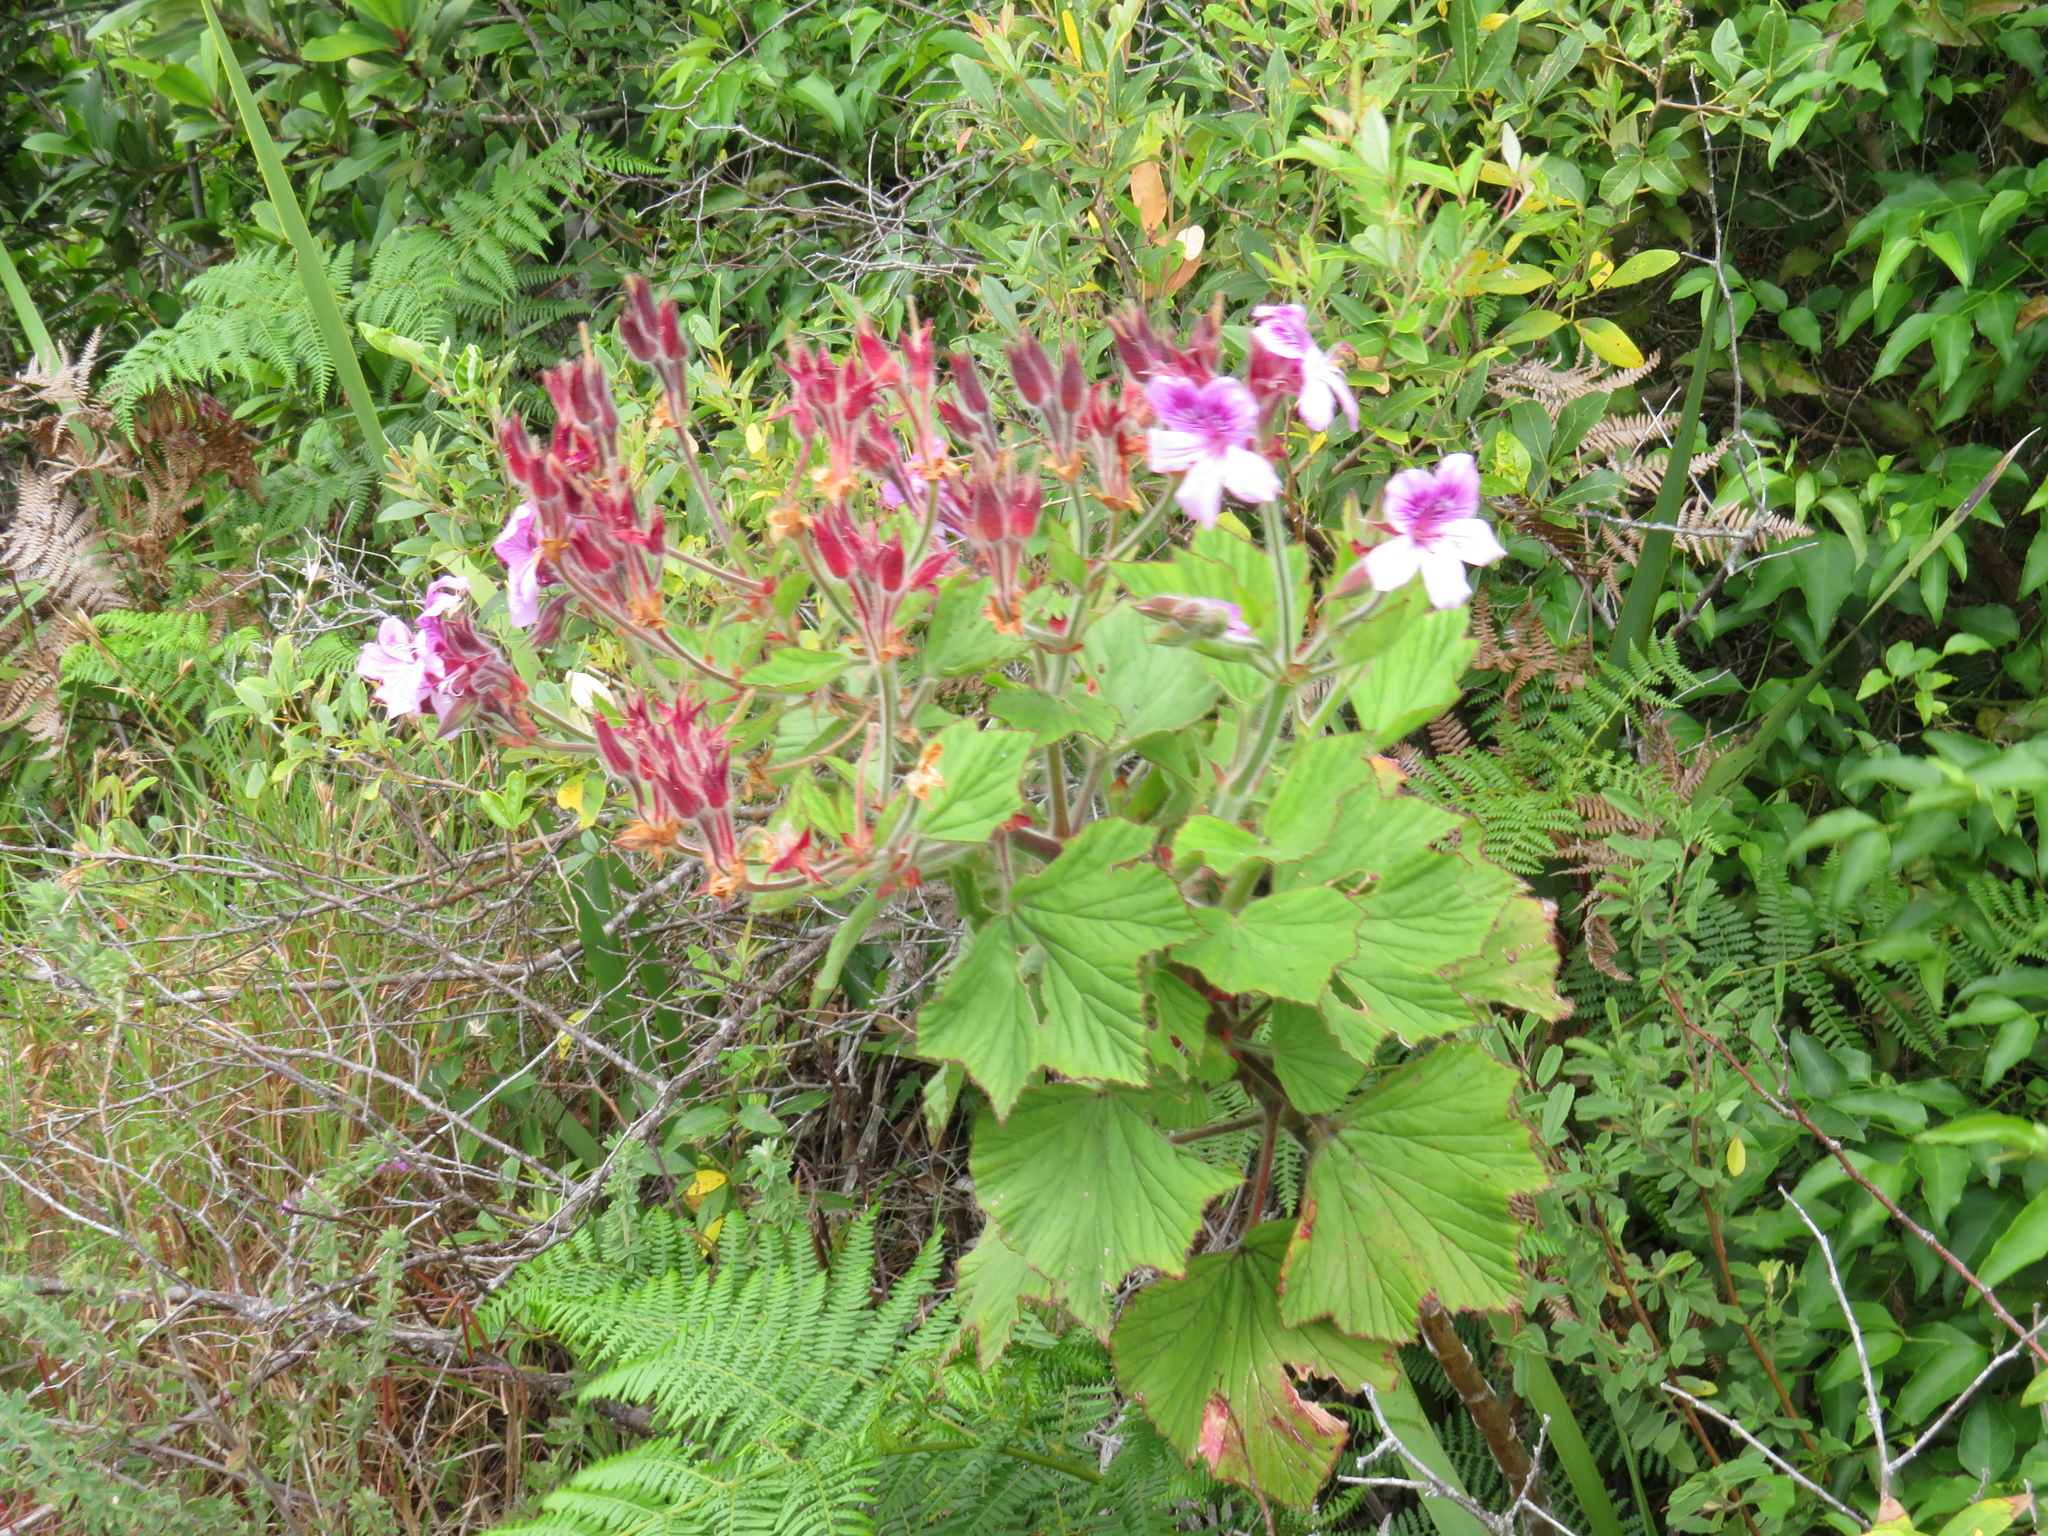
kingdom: Plantae
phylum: Tracheophyta
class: Magnoliopsida
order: Geraniales
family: Geraniaceae
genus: Pelargonium
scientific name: Pelargonium cucullatum
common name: Tree pelargonium
